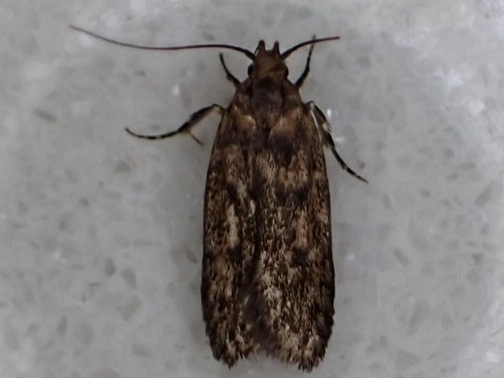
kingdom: Animalia
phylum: Arthropoda
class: Insecta
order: Lepidoptera
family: Oecophoridae
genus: Hofmannophila
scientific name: Hofmannophila pseudospretella
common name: Brown house moth
